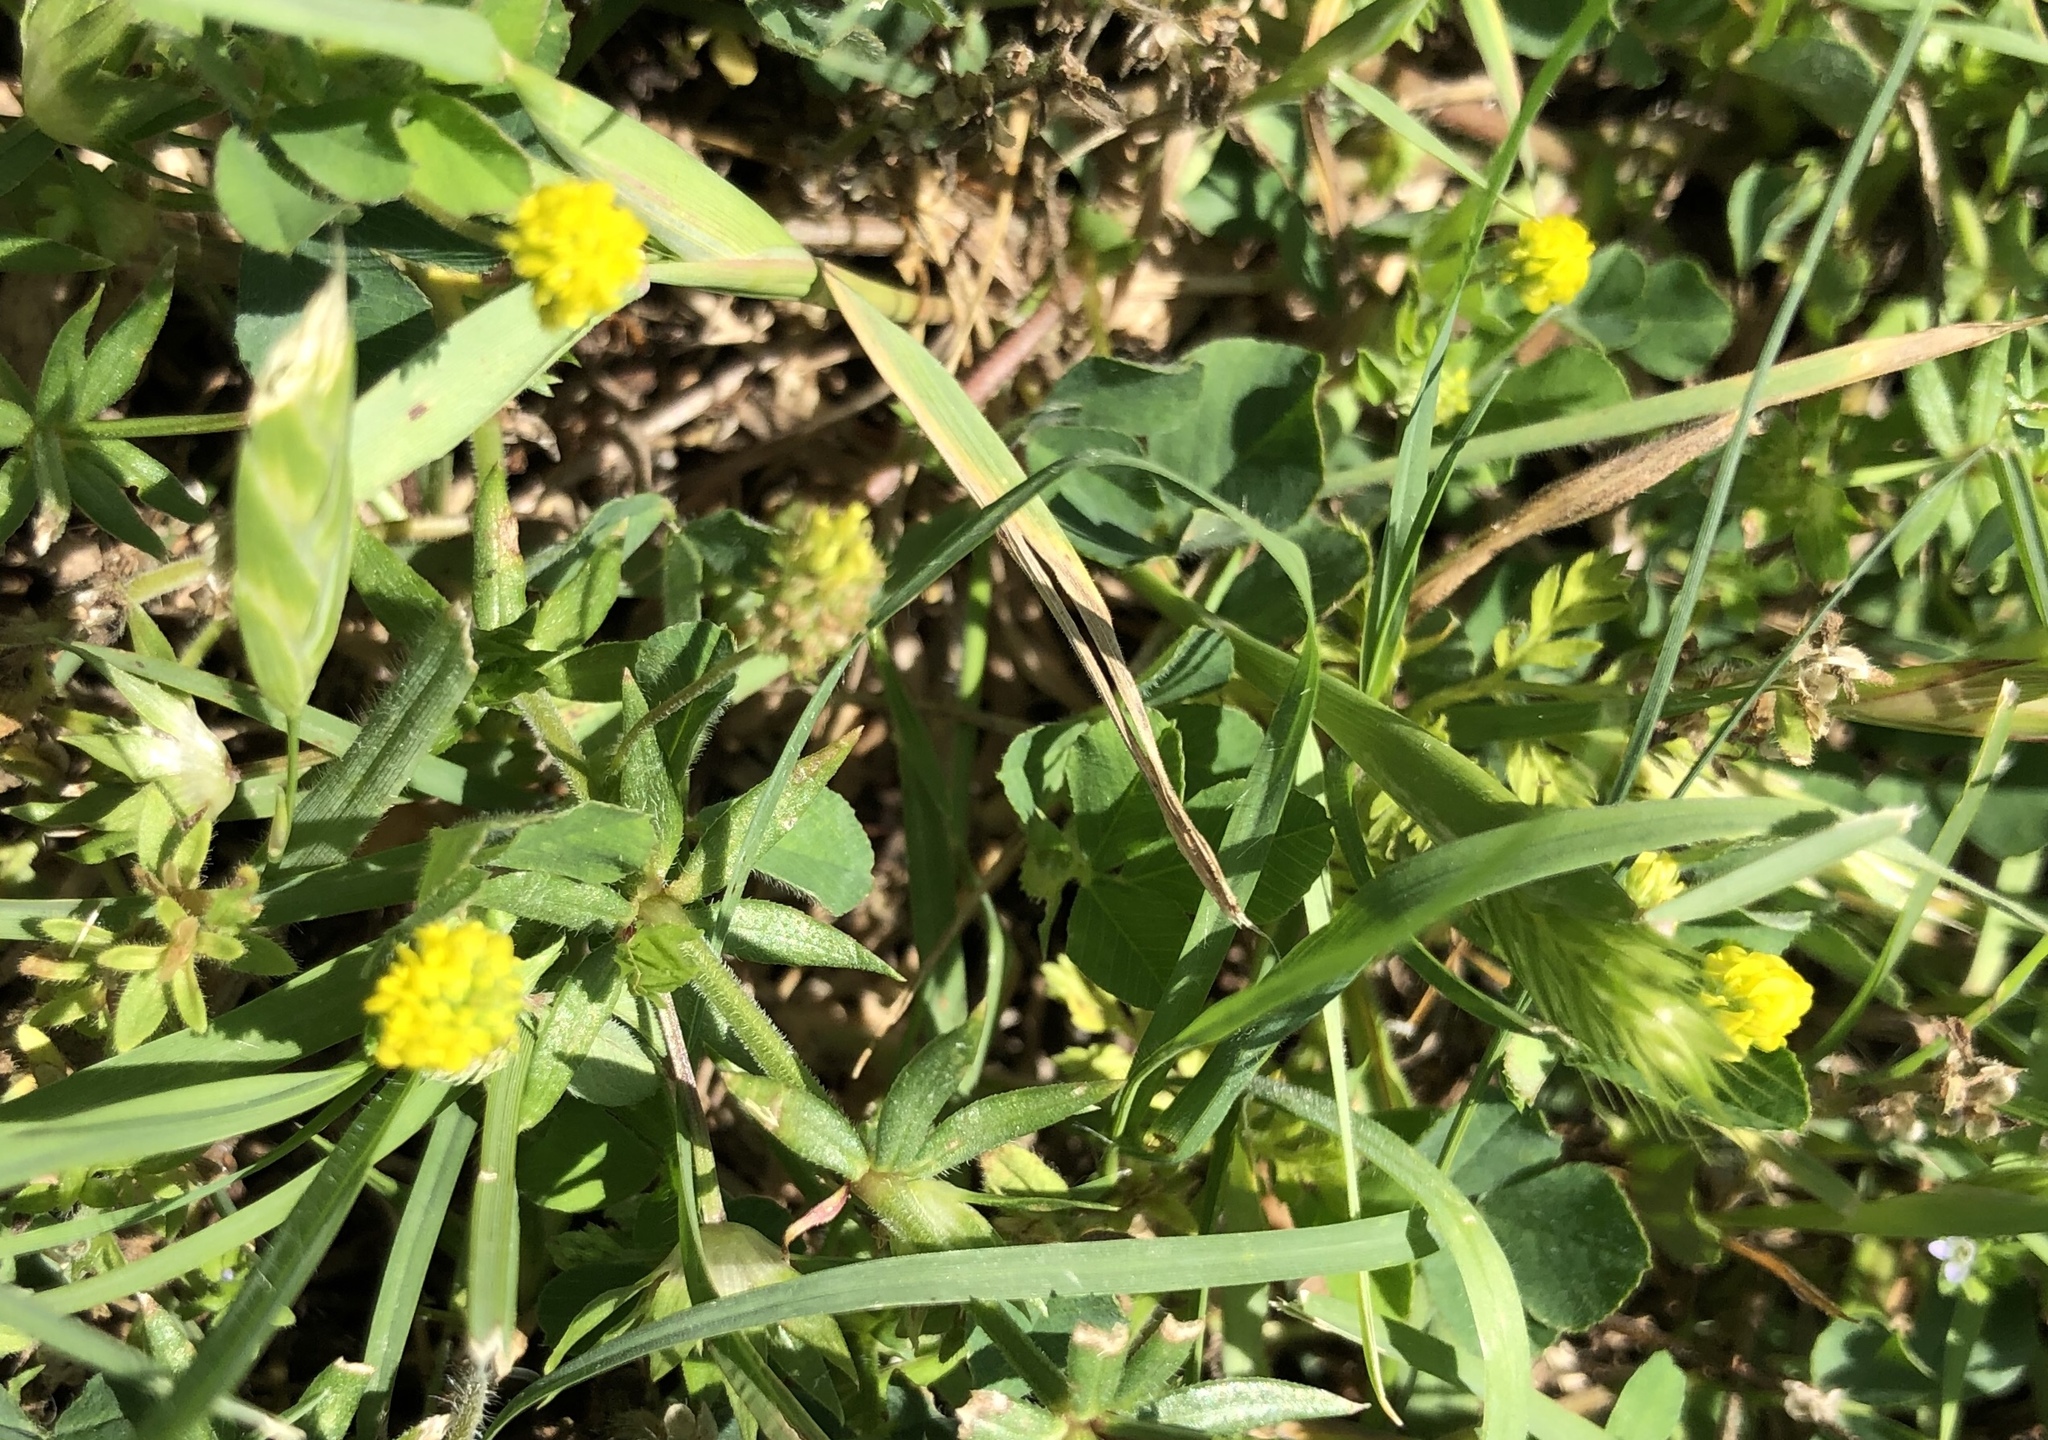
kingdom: Plantae
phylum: Tracheophyta
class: Magnoliopsida
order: Fabales
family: Fabaceae
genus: Medicago
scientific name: Medicago lupulina
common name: Black medick
